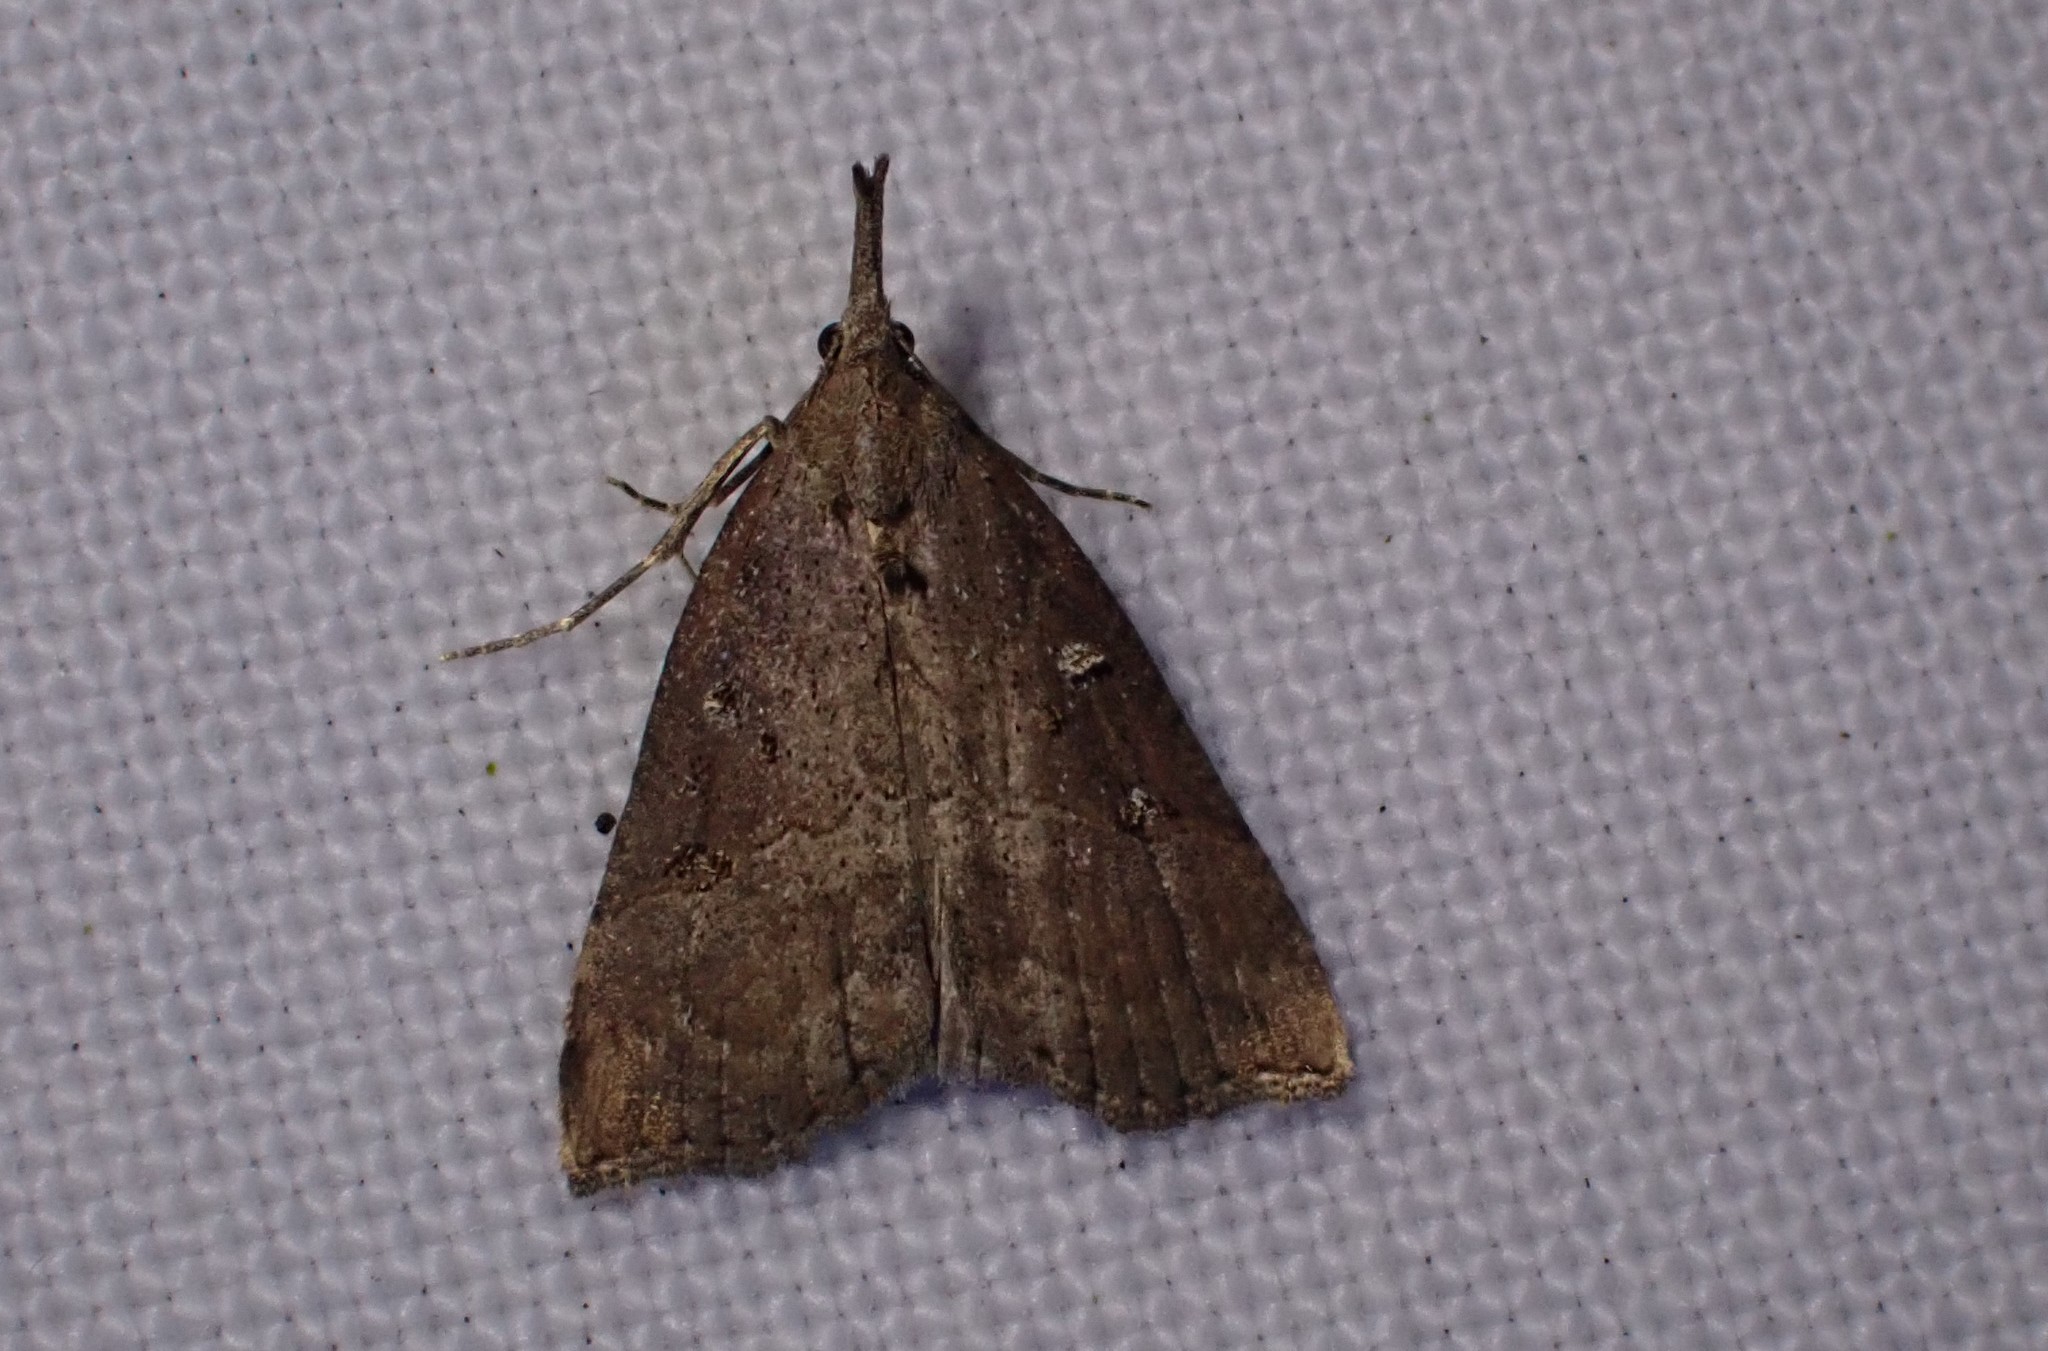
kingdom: Animalia
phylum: Arthropoda
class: Insecta
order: Lepidoptera
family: Erebidae
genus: Hypena
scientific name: Hypena rostralis
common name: Buttoned snout
